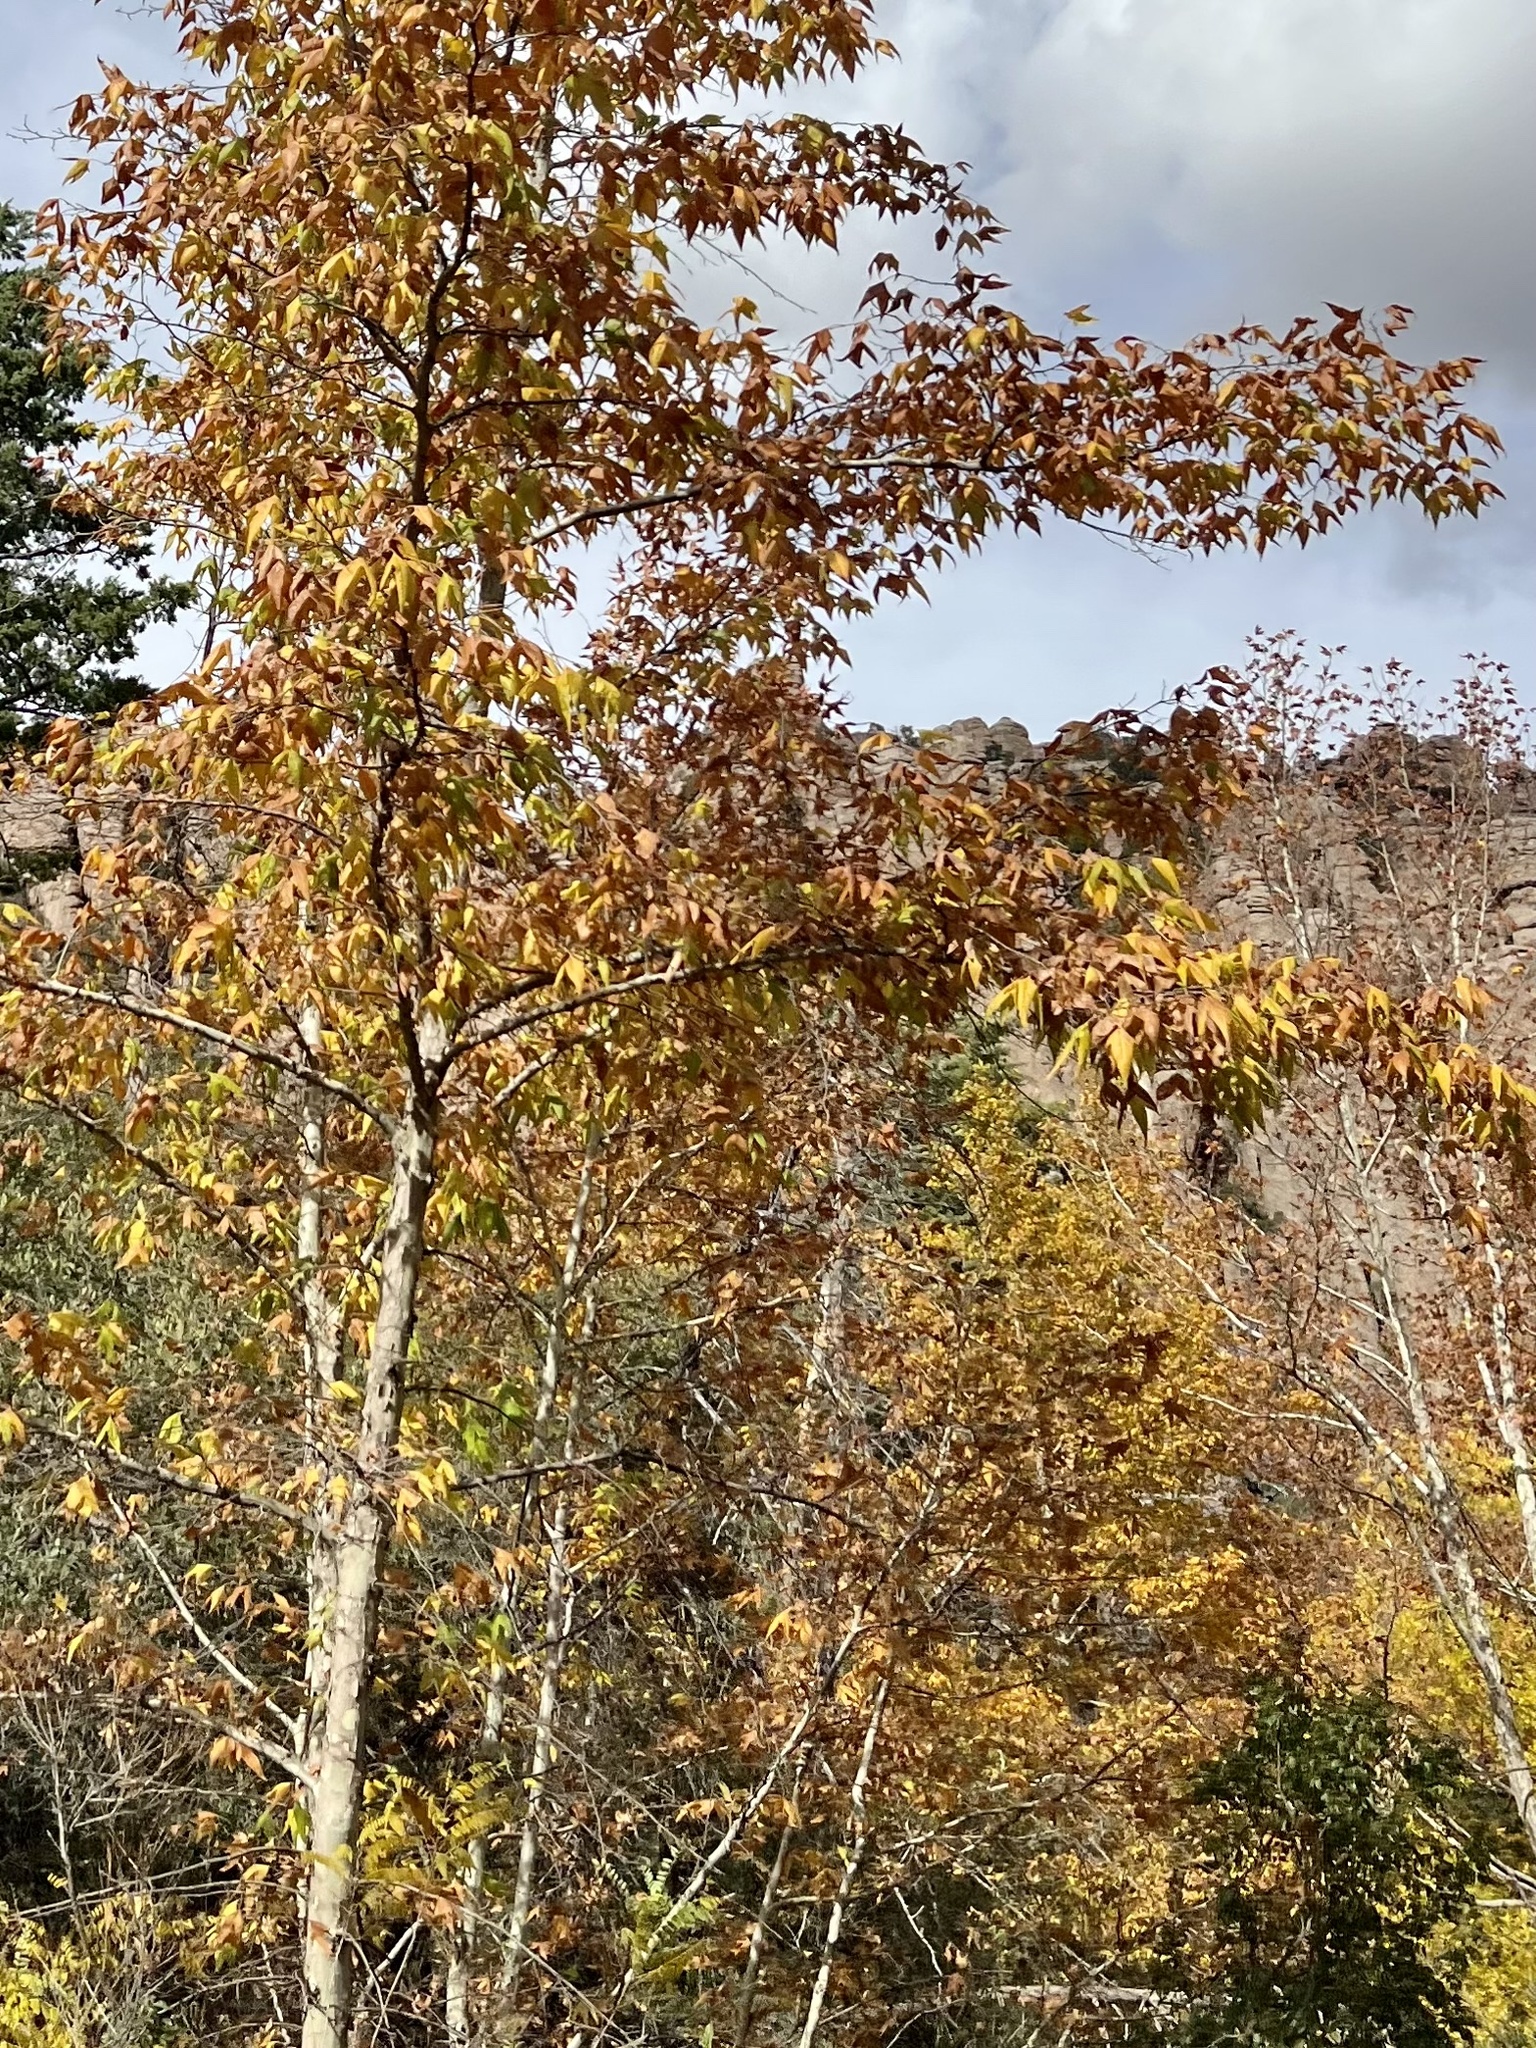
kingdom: Plantae
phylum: Tracheophyta
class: Magnoliopsida
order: Proteales
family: Platanaceae
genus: Platanus
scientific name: Platanus wrightii
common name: Arizona sycamore
